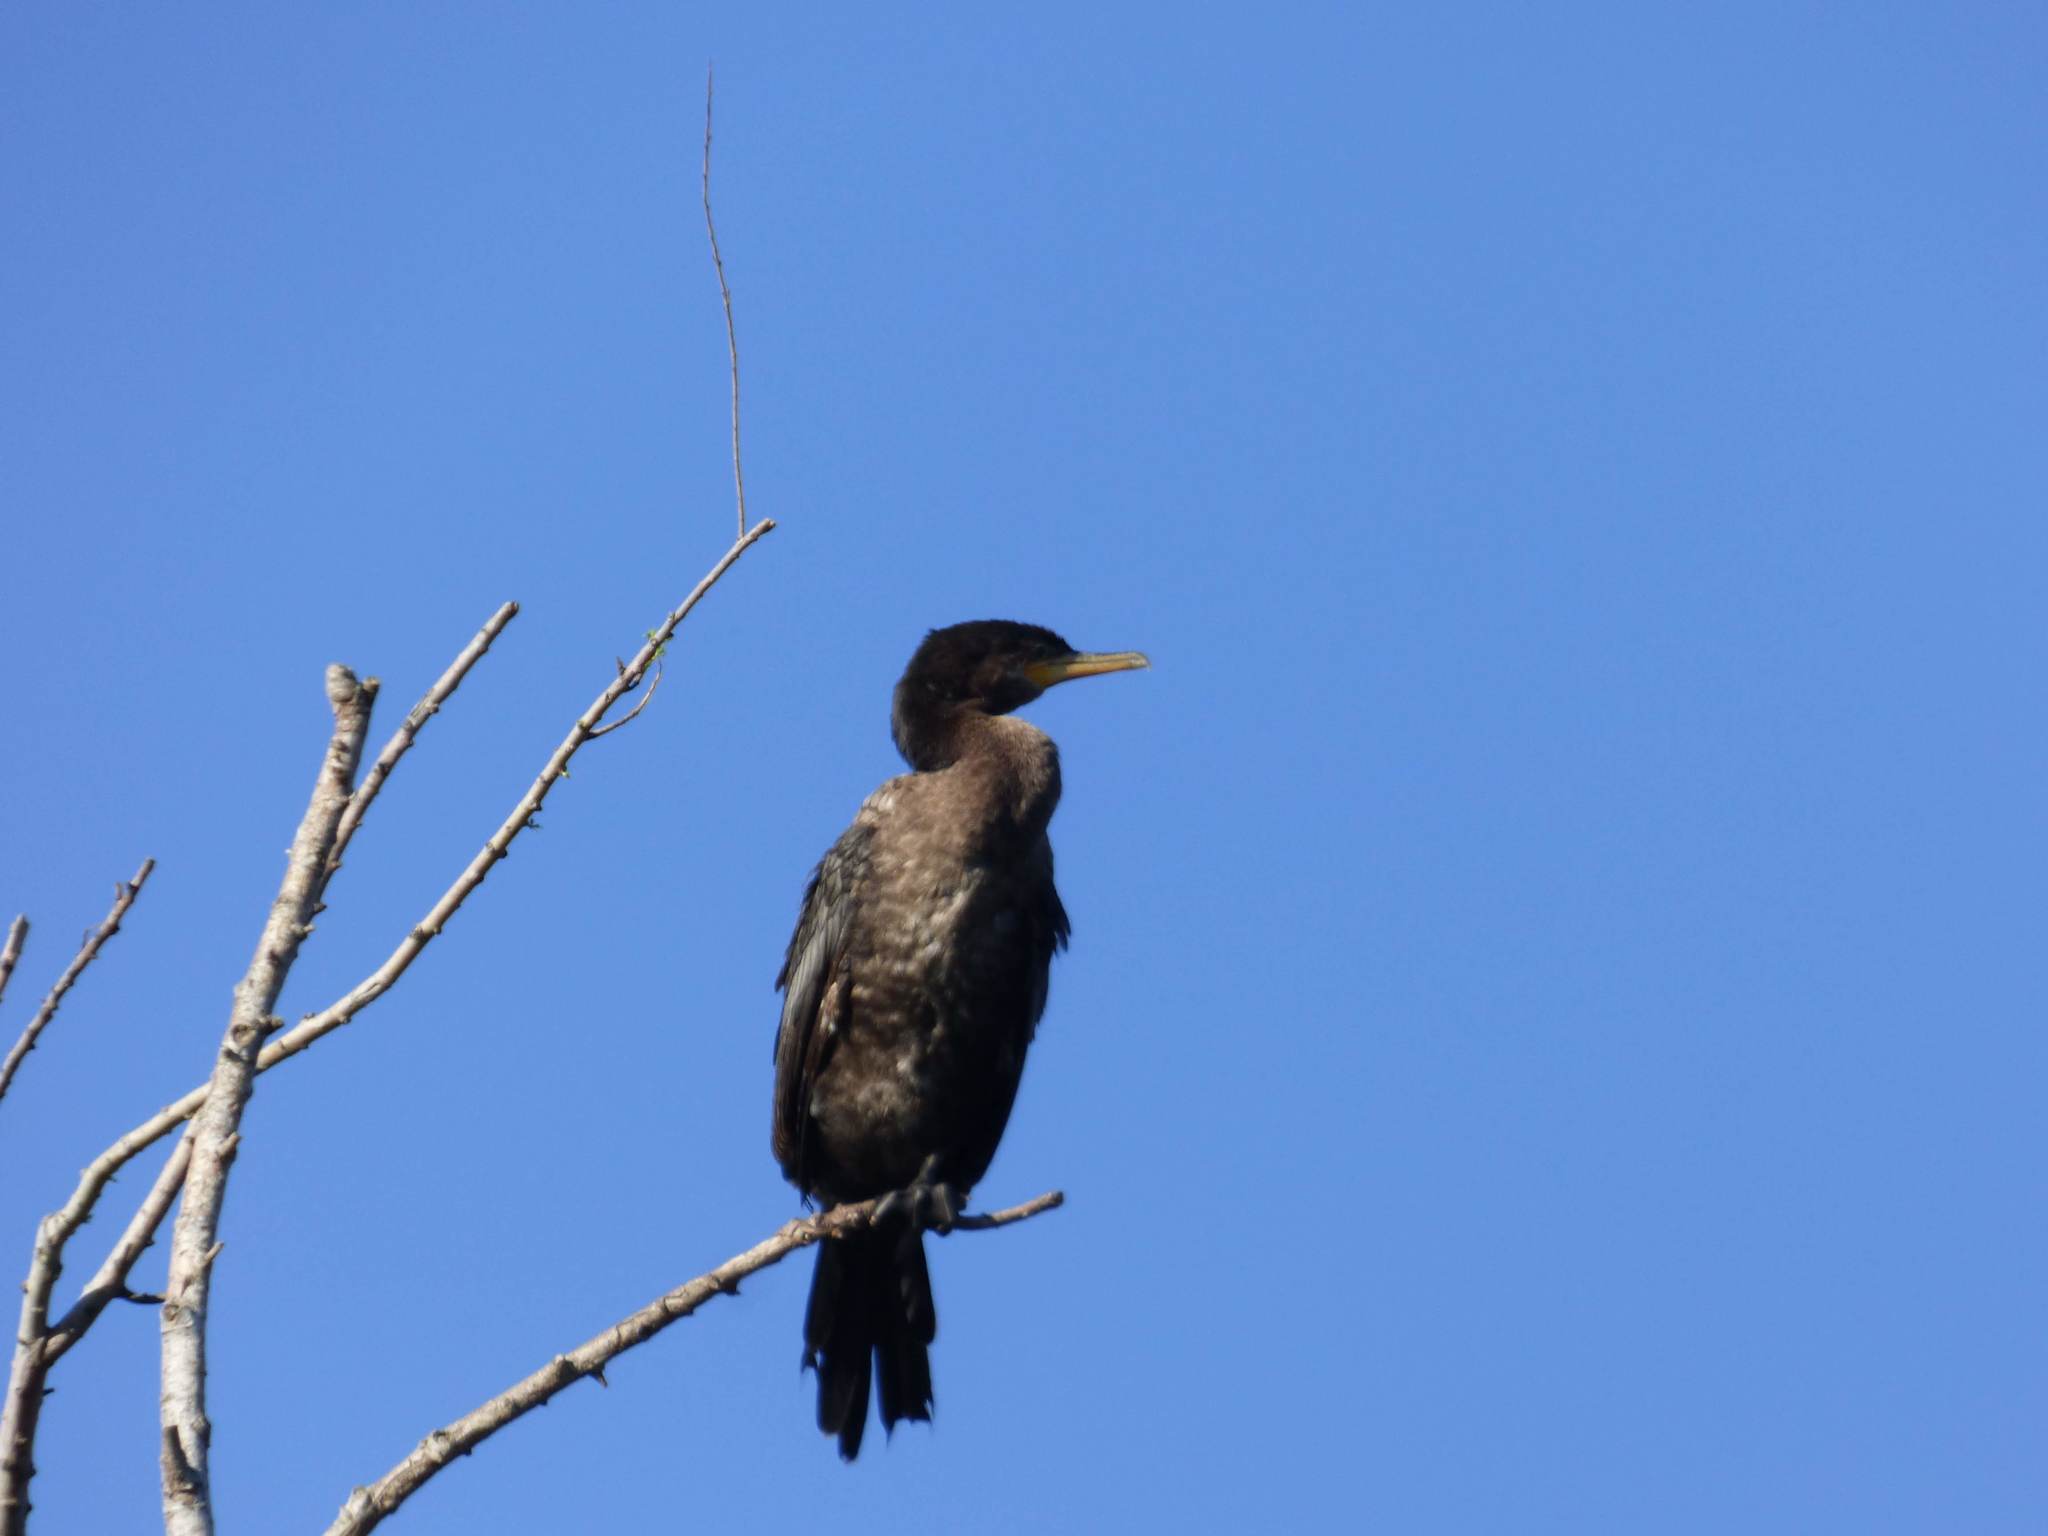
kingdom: Animalia
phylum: Chordata
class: Aves
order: Suliformes
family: Phalacrocoracidae
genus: Phalacrocorax
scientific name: Phalacrocorax brasilianus
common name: Neotropic cormorant
